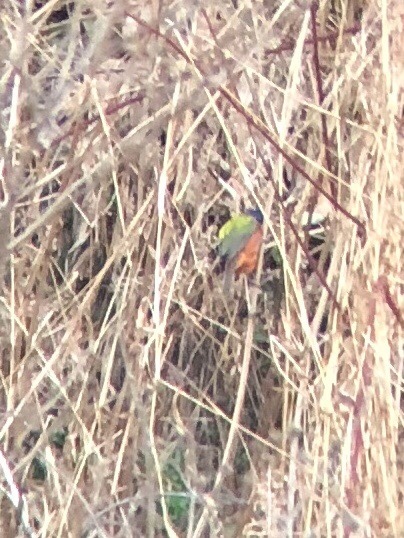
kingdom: Animalia
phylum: Chordata
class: Aves
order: Passeriformes
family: Cardinalidae
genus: Passerina
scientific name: Passerina ciris
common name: Painted bunting
